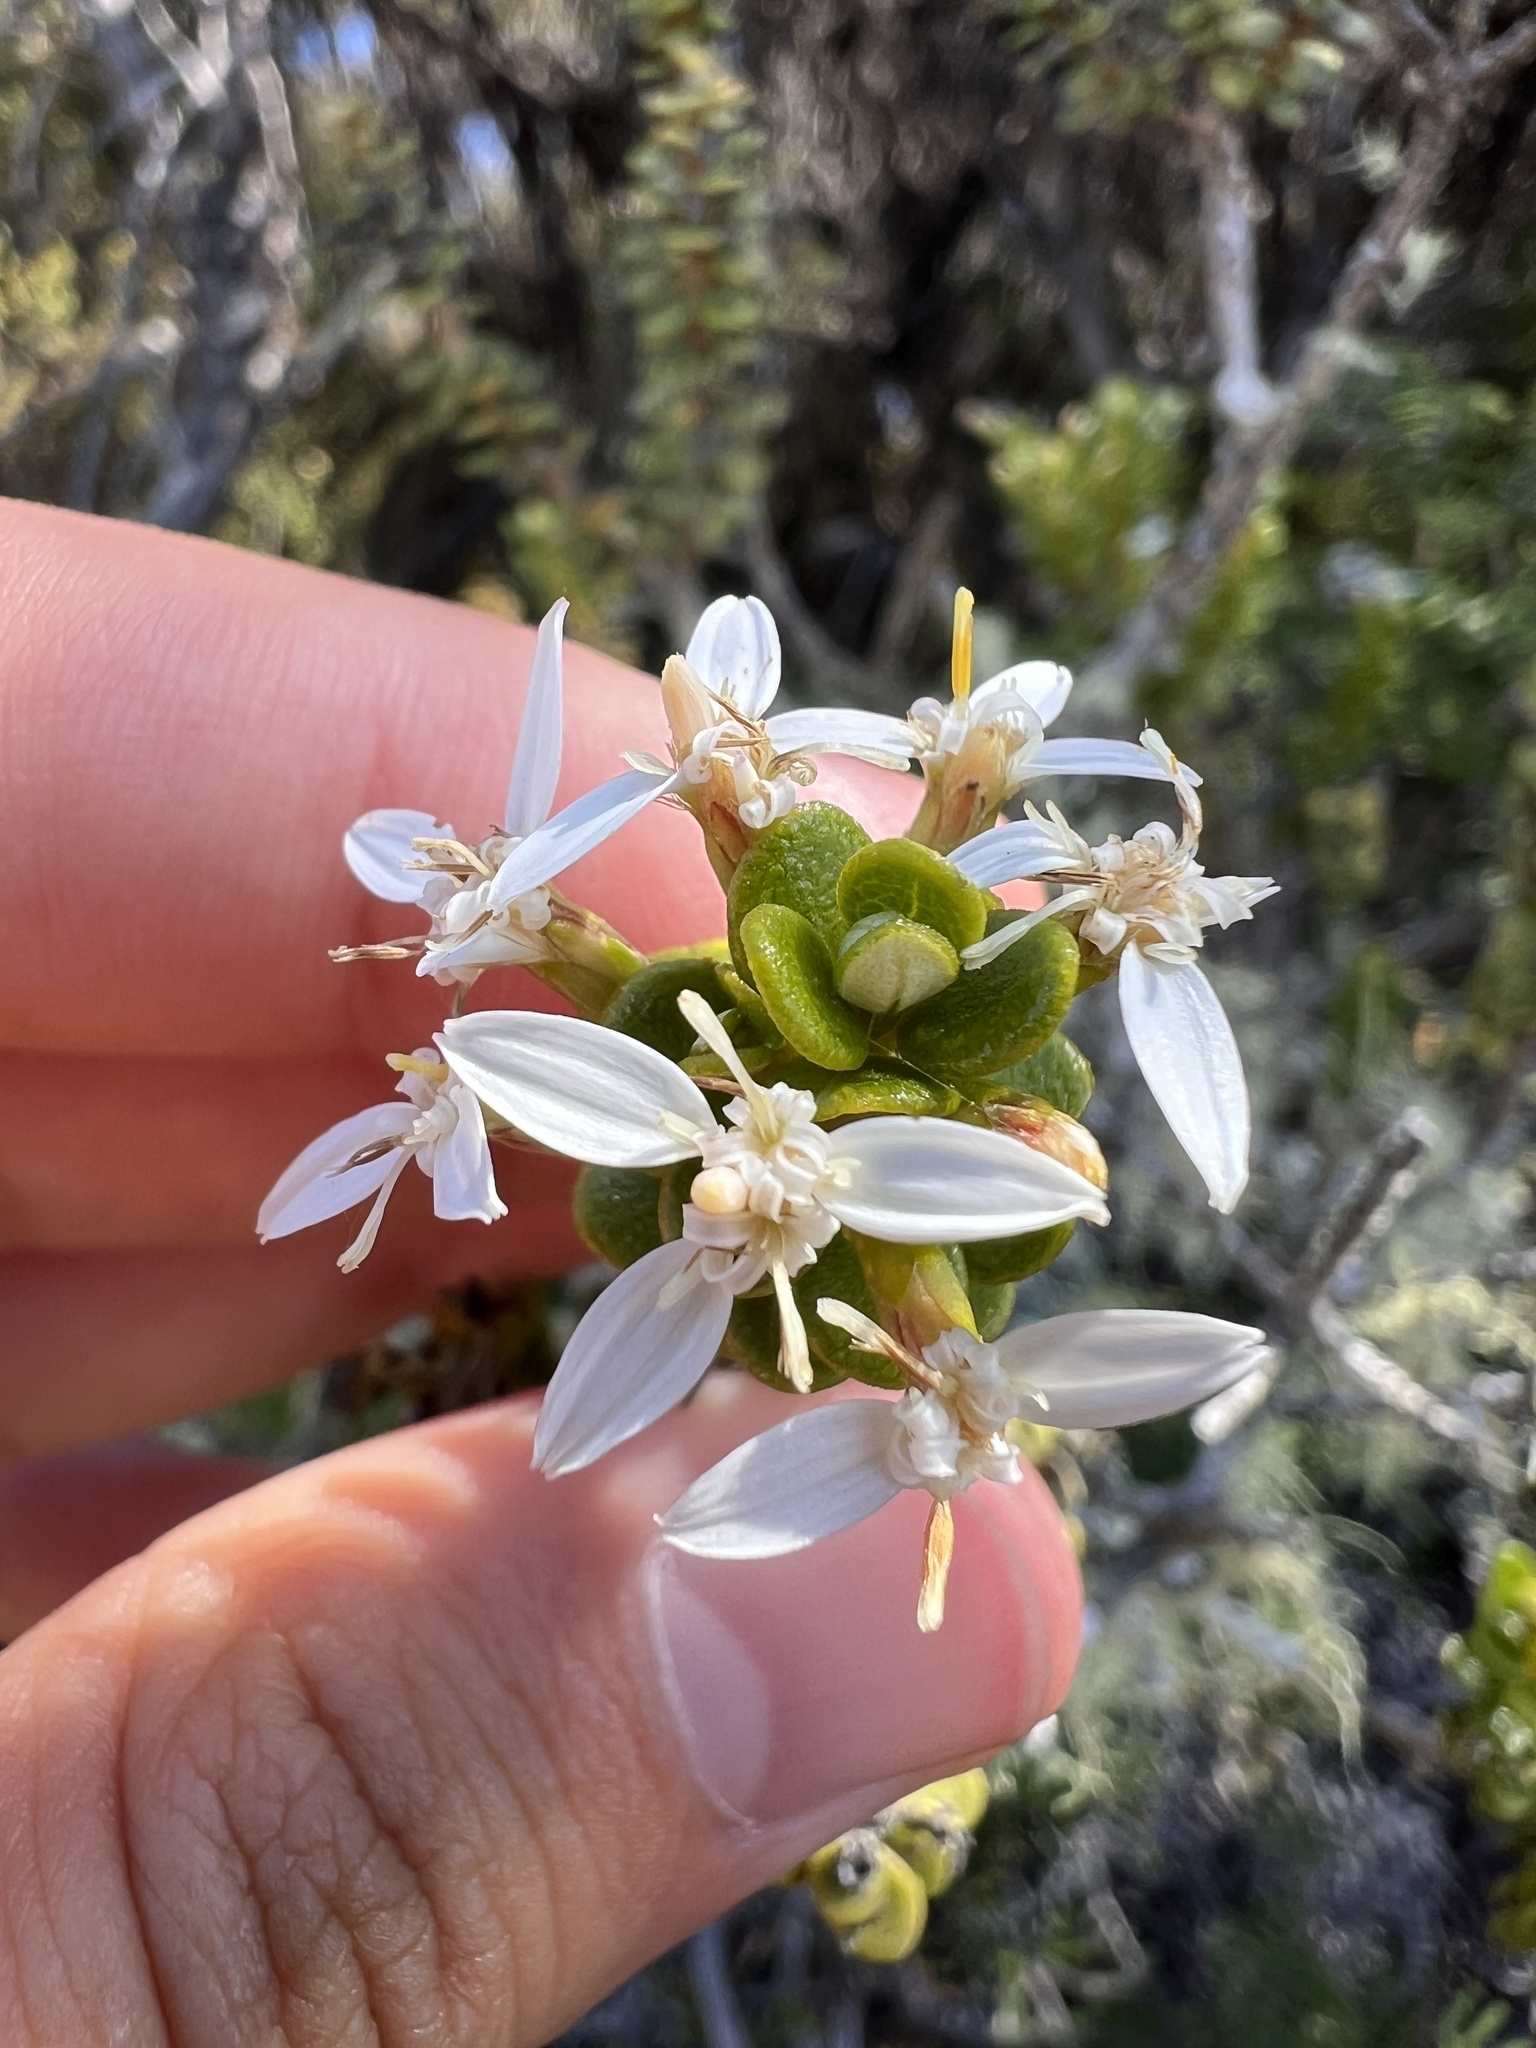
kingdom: Plantae
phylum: Tracheophyta
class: Magnoliopsida
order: Asterales
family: Asteraceae
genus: Olearia
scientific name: Olearia nummularifolia
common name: Sticky daisybush
